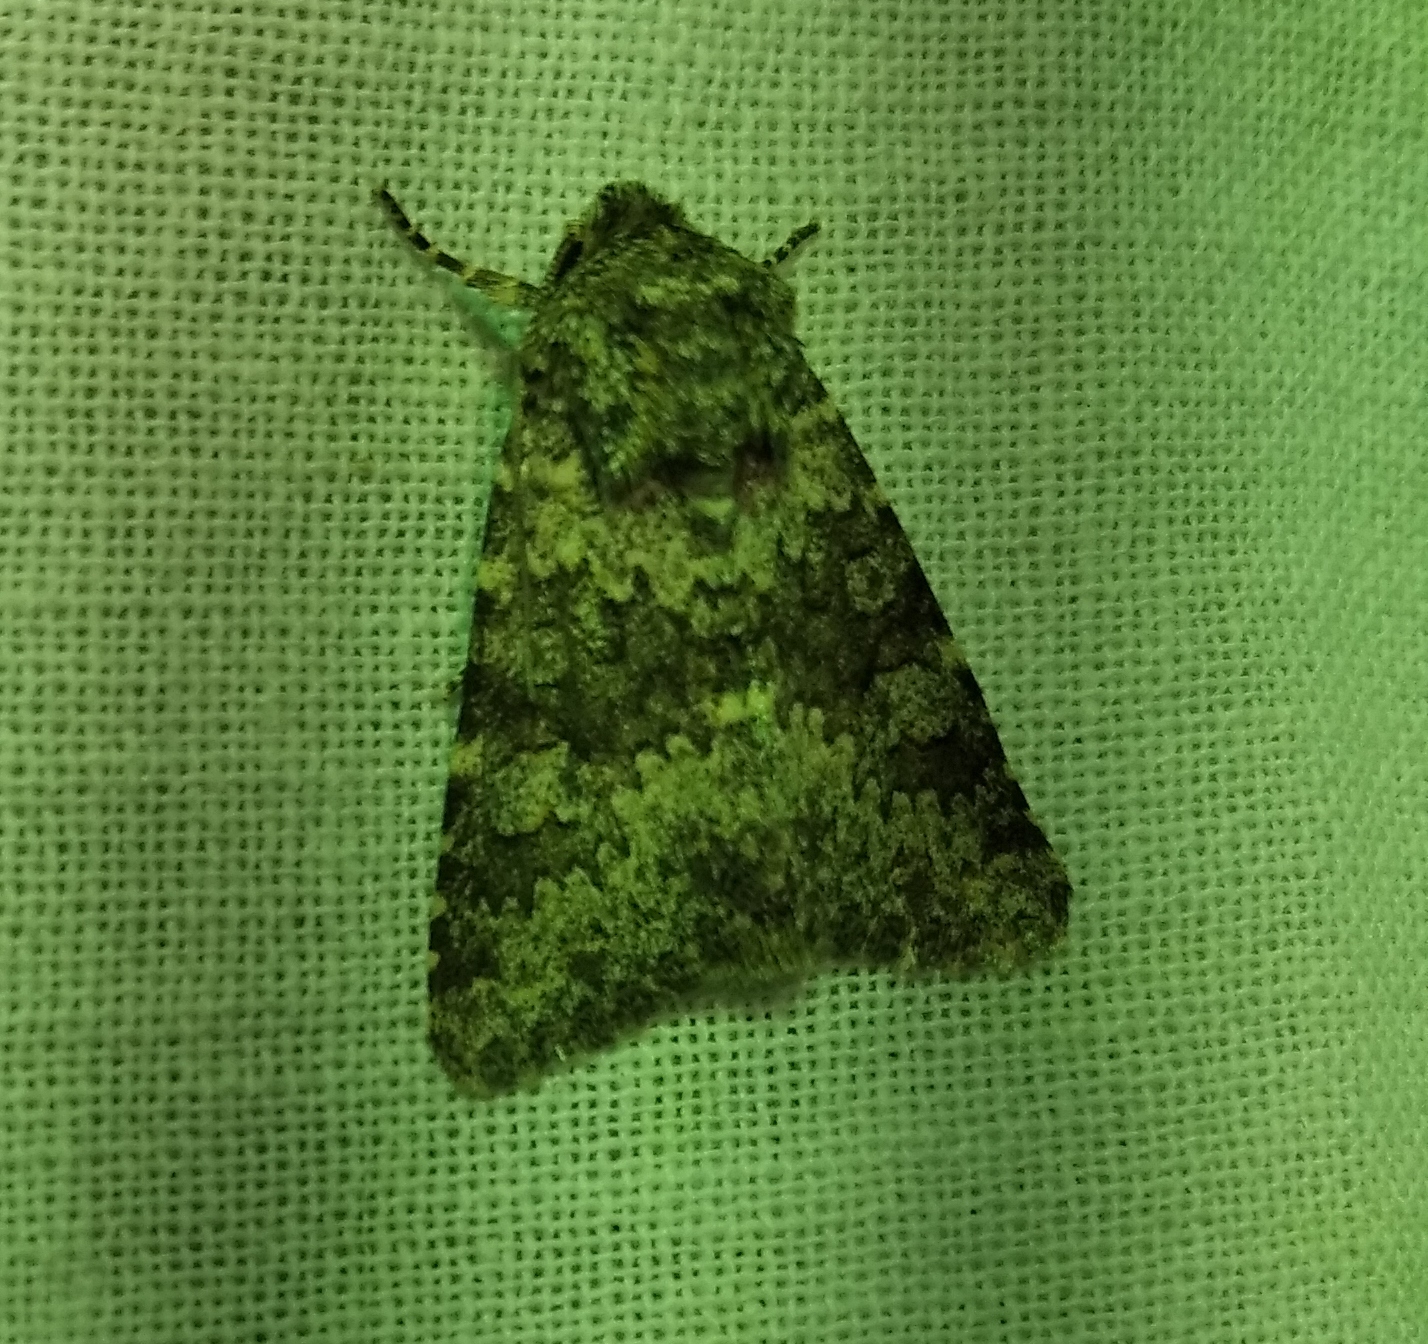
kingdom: Animalia
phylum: Arthropoda
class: Insecta
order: Lepidoptera
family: Noctuidae
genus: Hecatera
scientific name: Hecatera dysodea
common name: Small ranunculus
